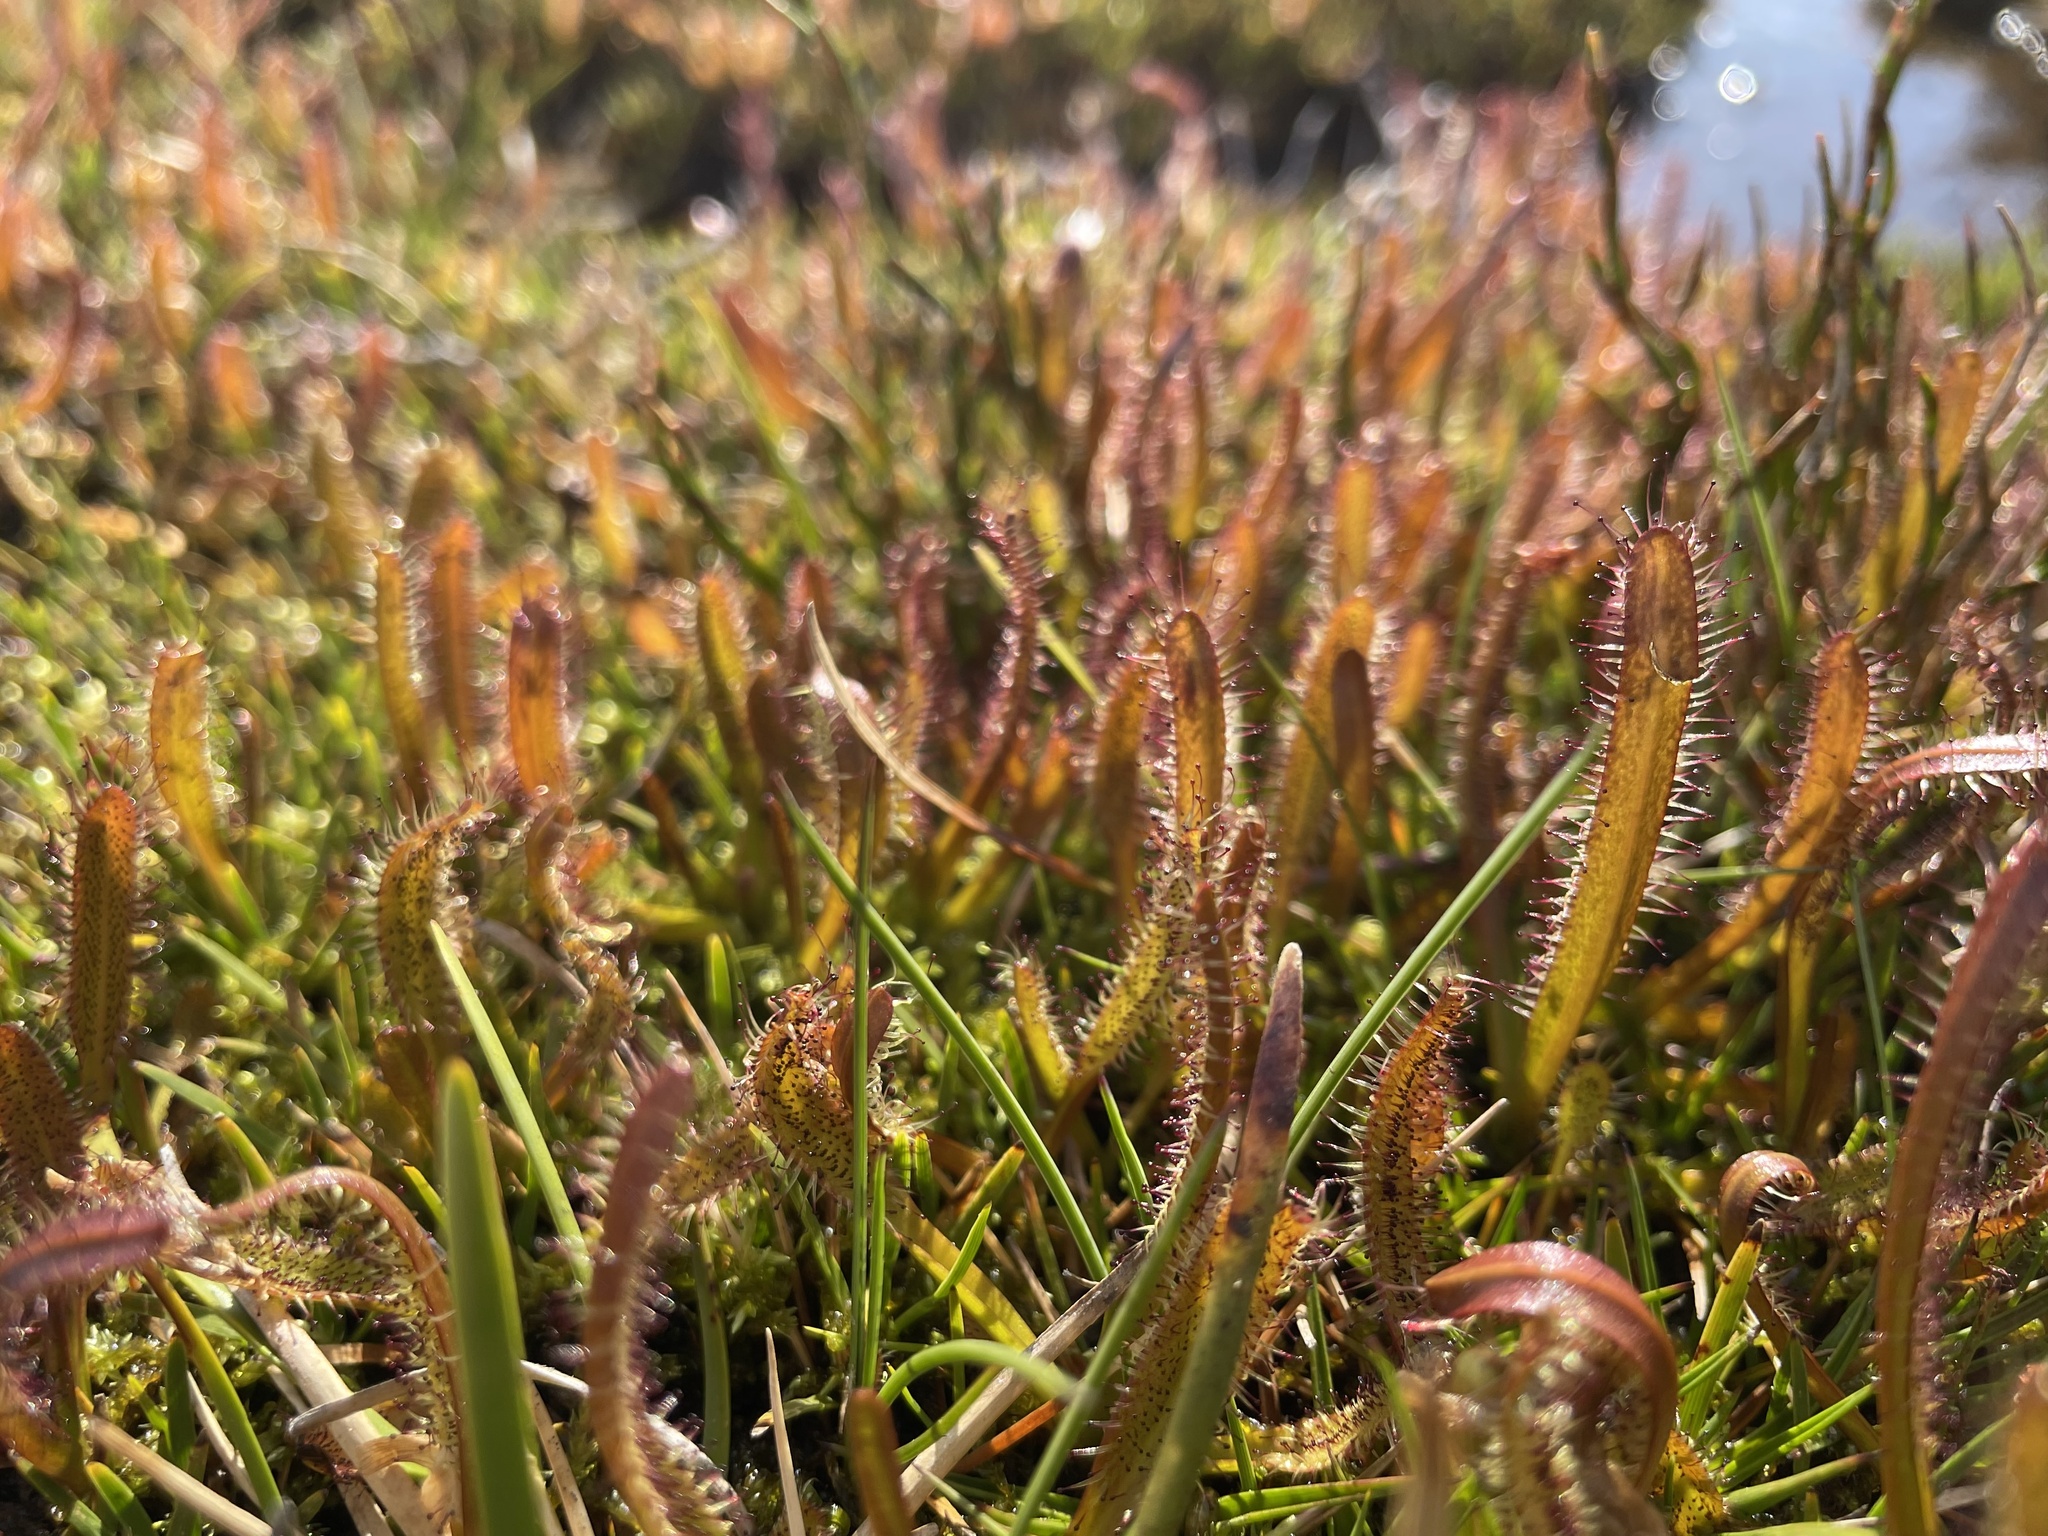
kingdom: Plantae
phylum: Tracheophyta
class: Magnoliopsida
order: Caryophyllales
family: Droseraceae
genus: Drosera
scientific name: Drosera arcturi
